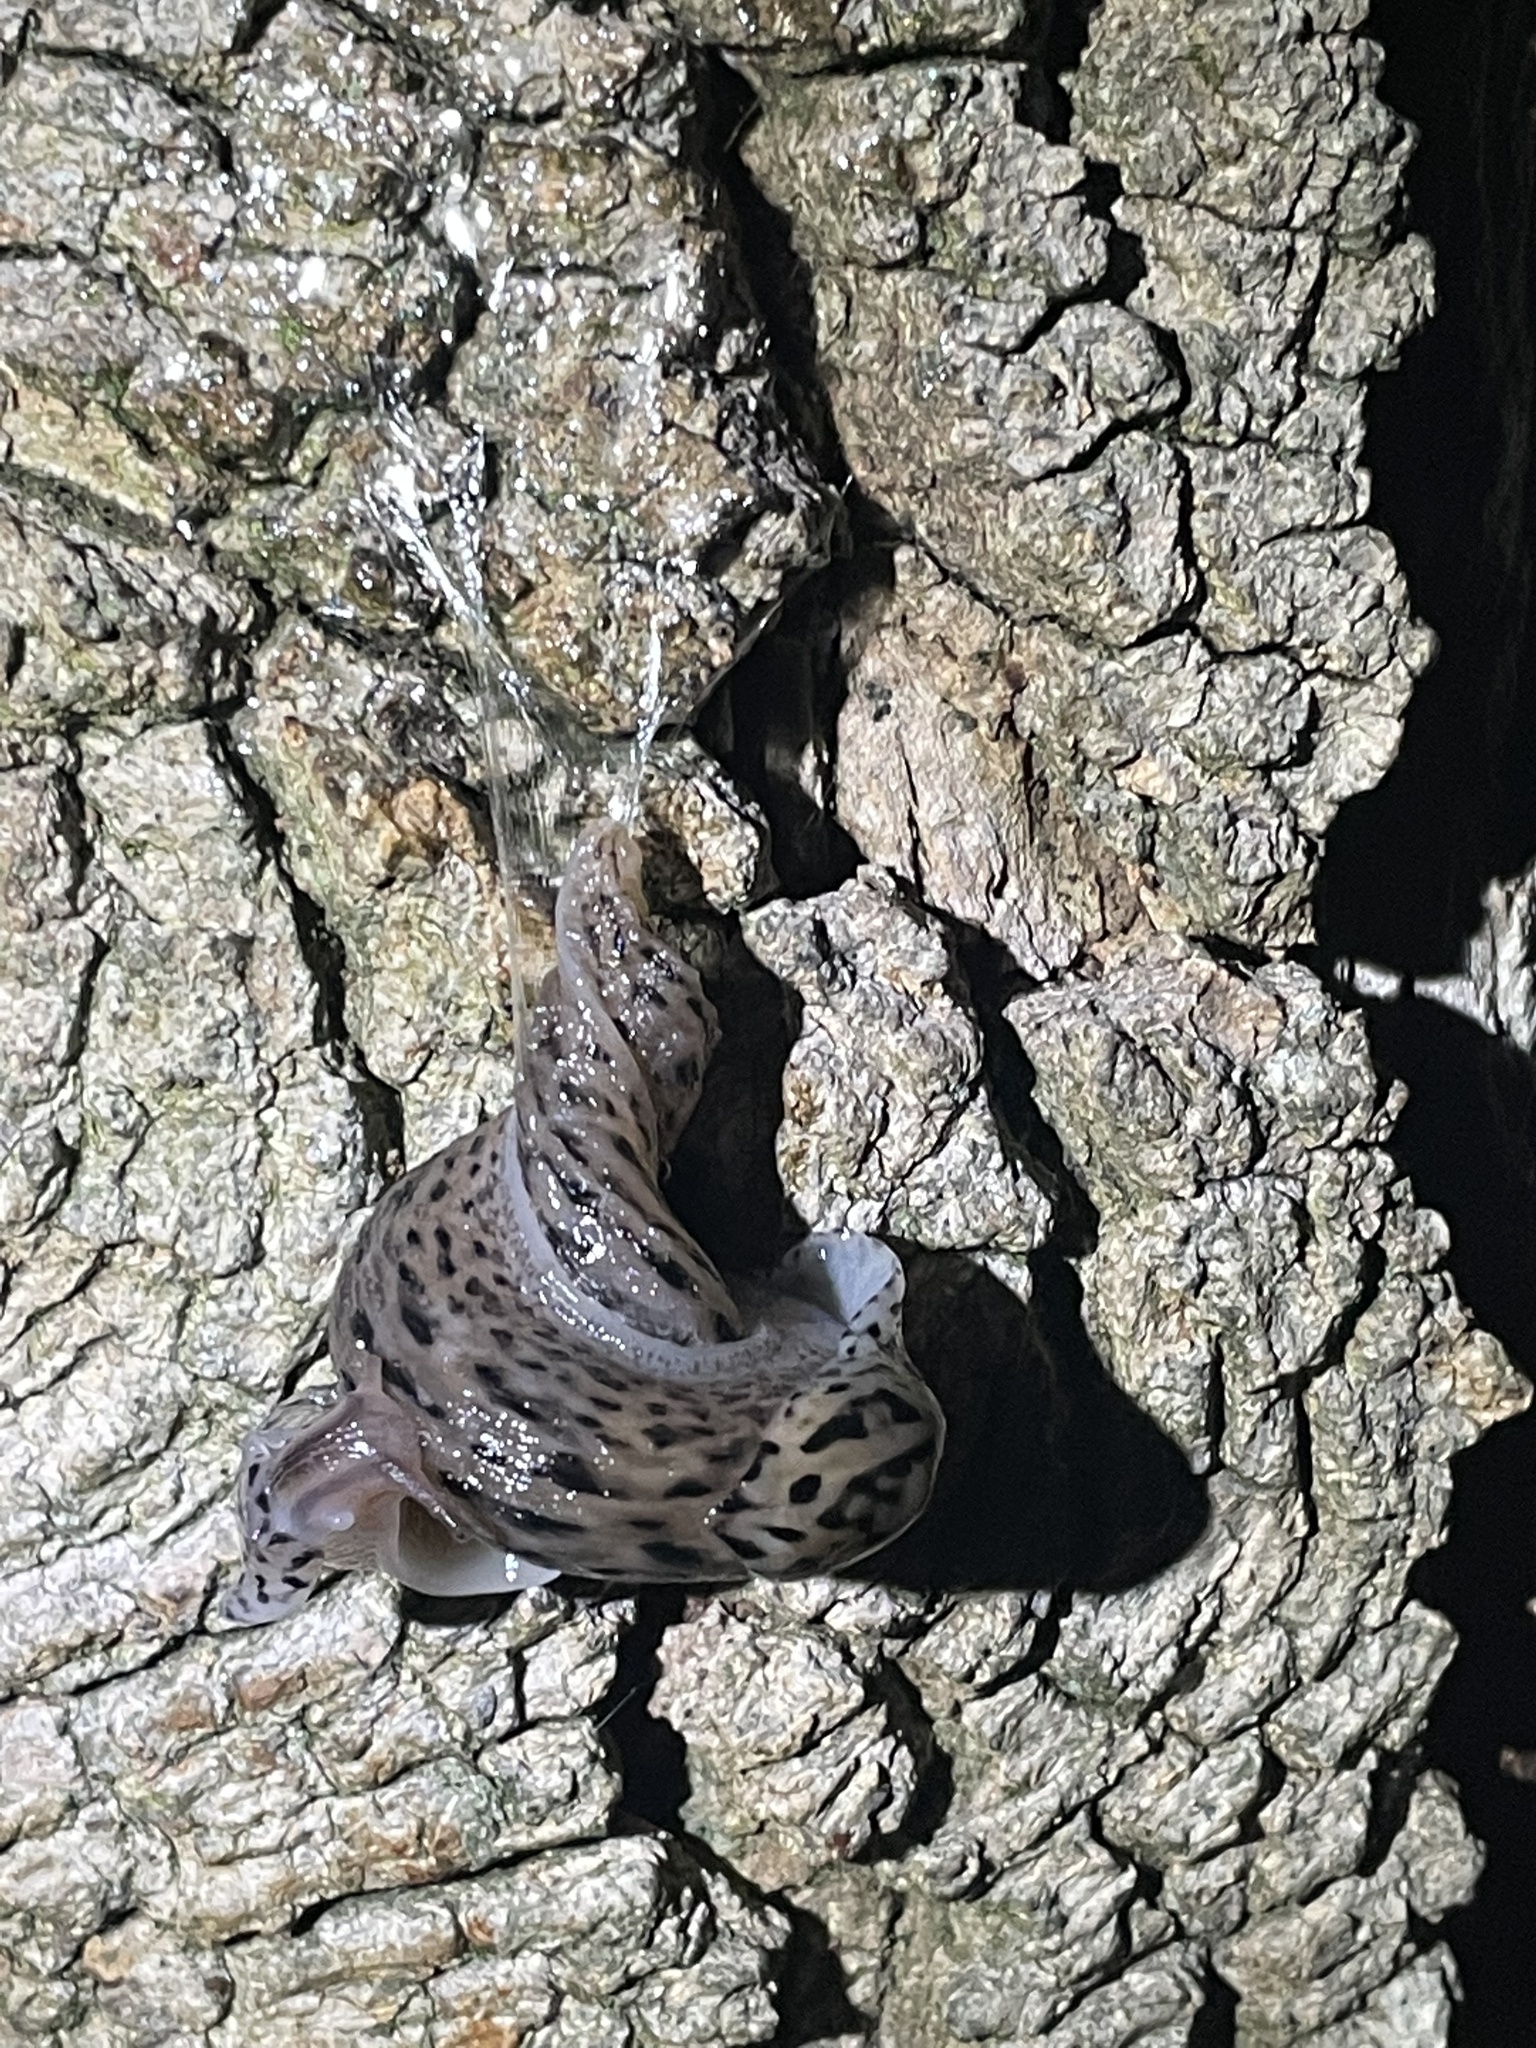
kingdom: Animalia
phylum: Mollusca
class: Gastropoda
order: Stylommatophora
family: Limacidae
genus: Limax
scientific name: Limax maximus
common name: Great grey slug
